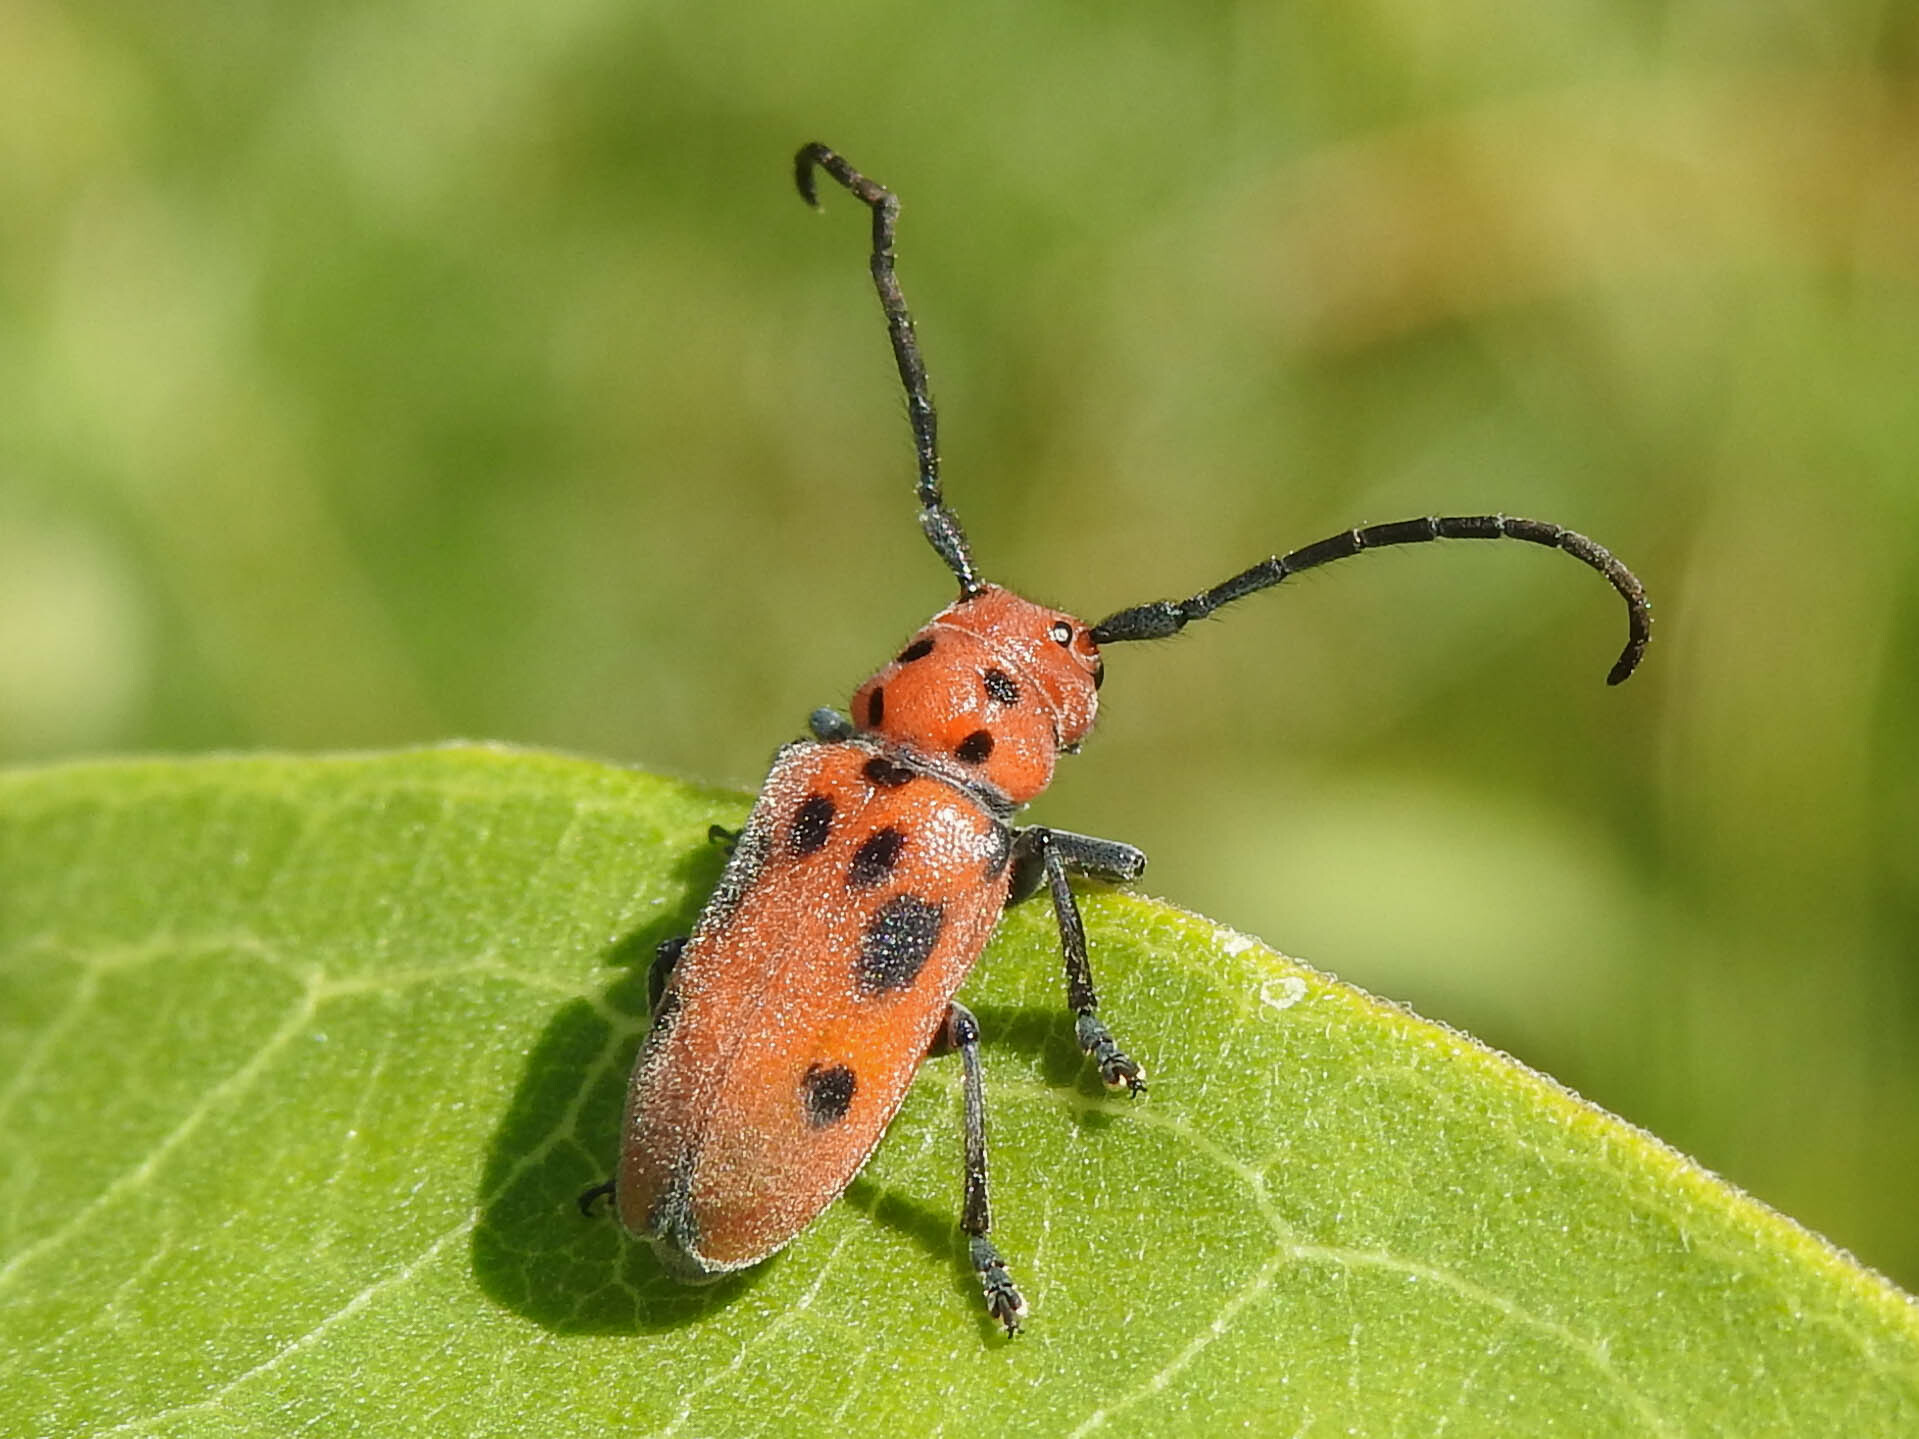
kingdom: Animalia
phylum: Arthropoda
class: Insecta
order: Coleoptera
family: Cerambycidae
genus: Tetraopes
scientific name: Tetraopes tetrophthalmus
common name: Red milkweed beetle
